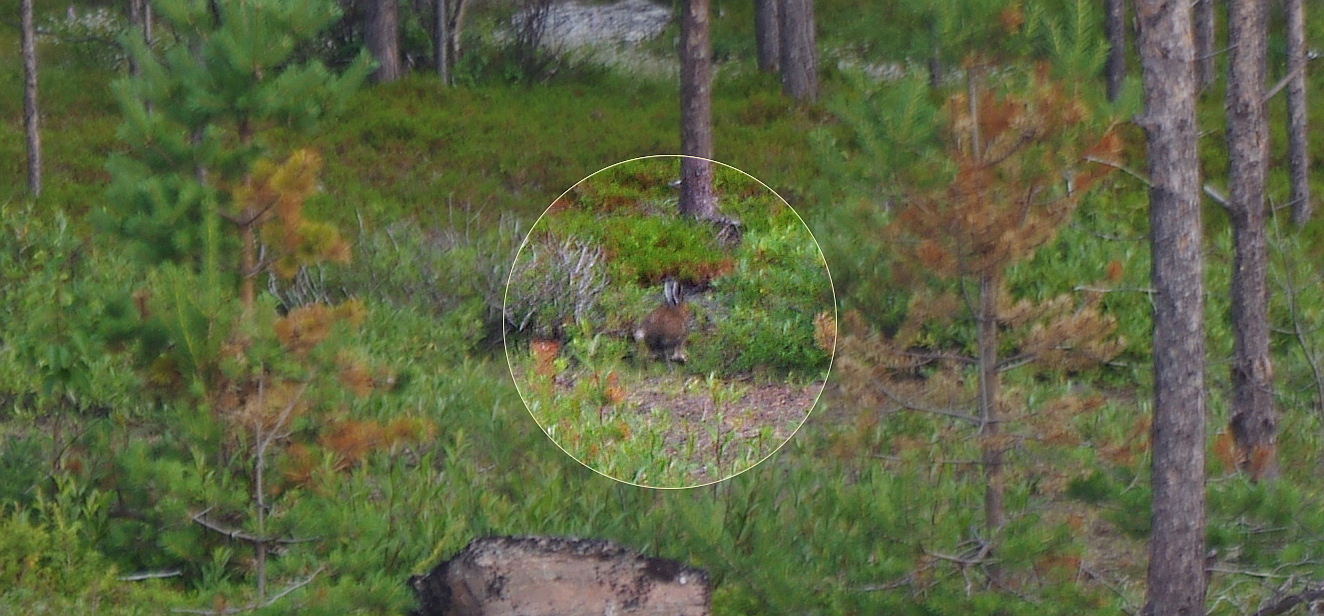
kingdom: Animalia
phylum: Chordata
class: Mammalia
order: Lagomorpha
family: Leporidae
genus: Lepus
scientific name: Lepus timidus
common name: Mountain hare
